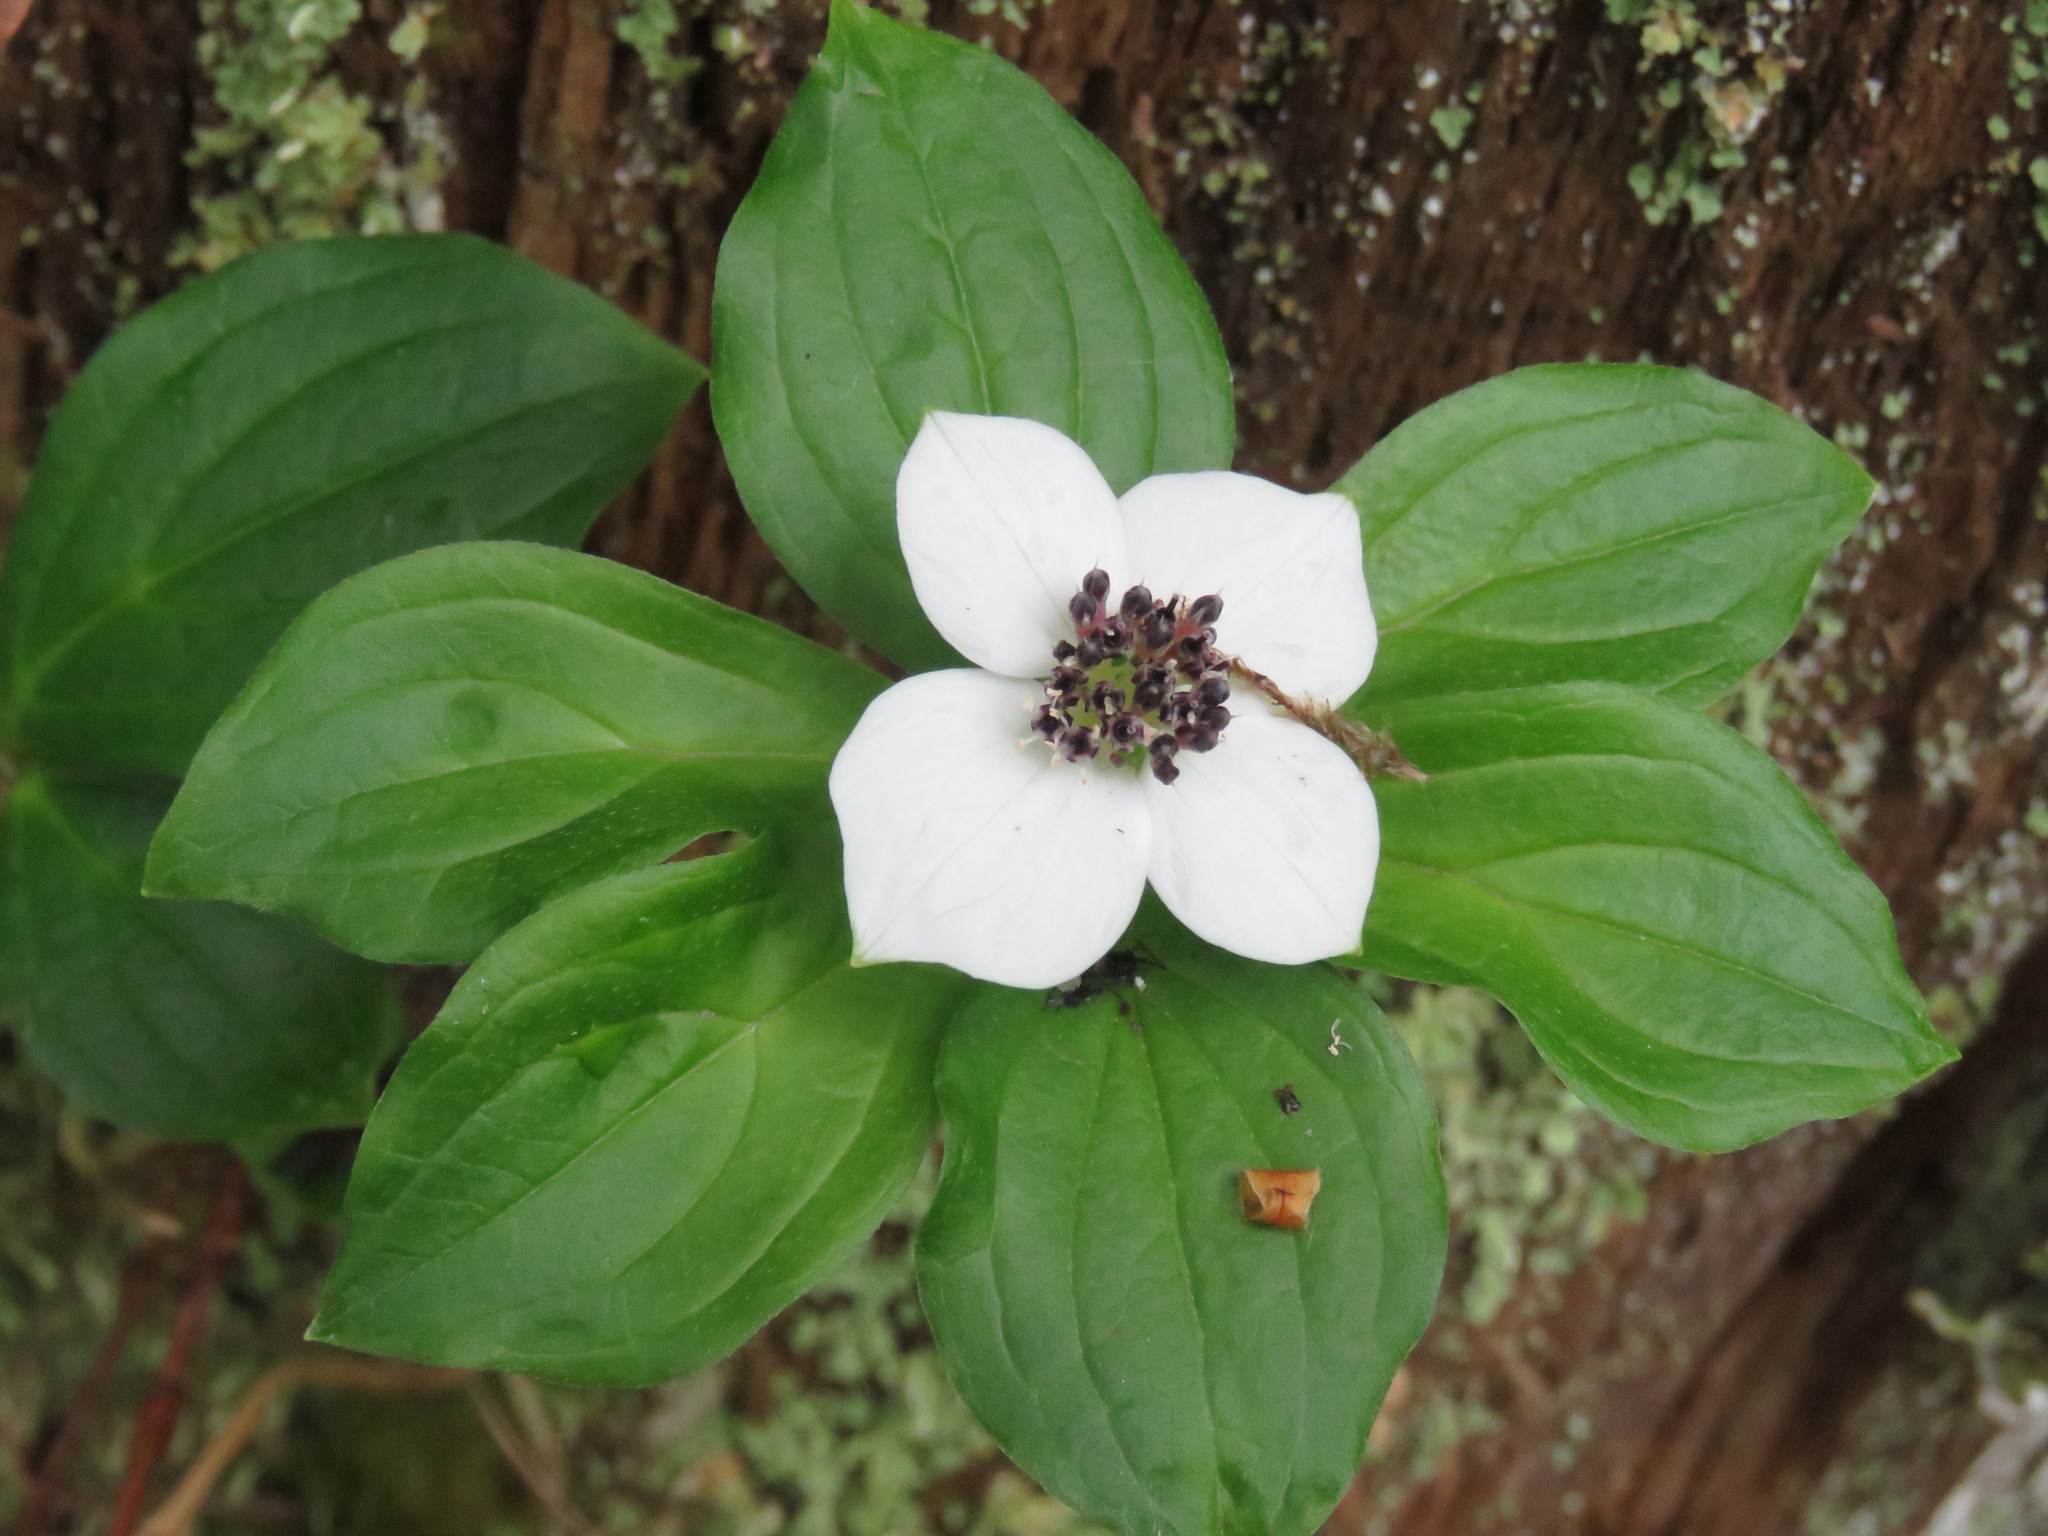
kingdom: Plantae
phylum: Tracheophyta
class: Magnoliopsida
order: Cornales
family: Cornaceae
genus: Cornus
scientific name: Cornus unalaschkensis
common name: Alaska bunchberry
